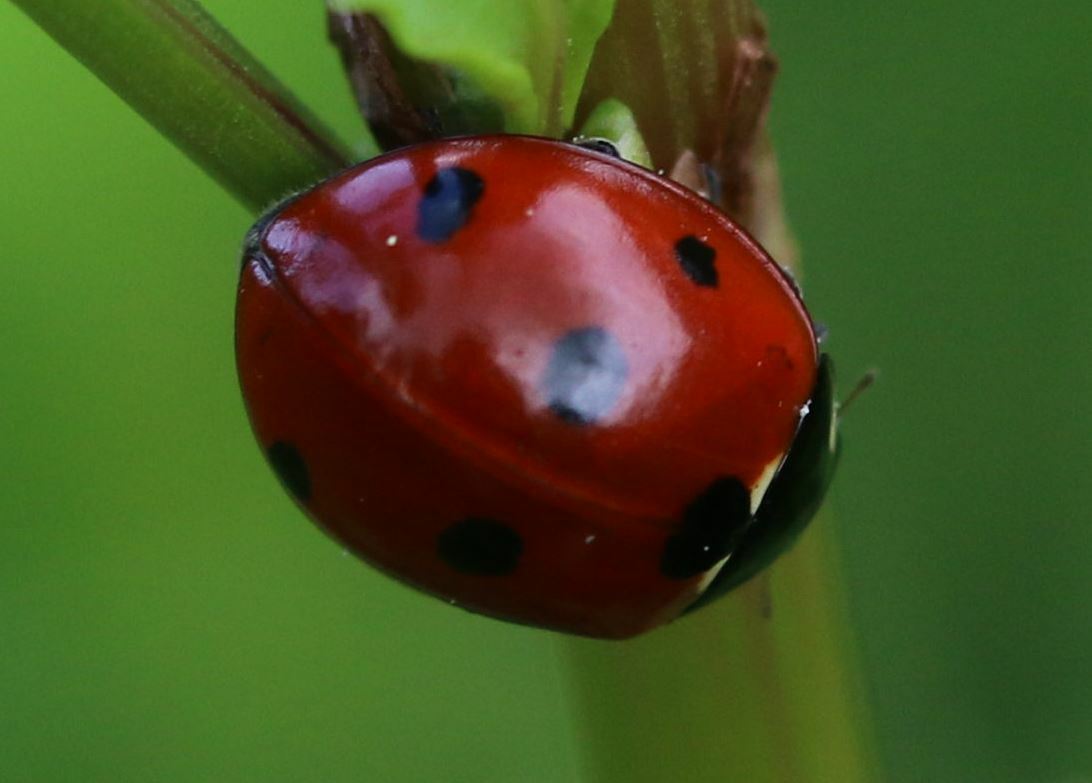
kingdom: Animalia
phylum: Arthropoda
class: Insecta
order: Coleoptera
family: Coccinellidae
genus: Coccinella
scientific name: Coccinella septempunctata
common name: Sevenspotted lady beetle
